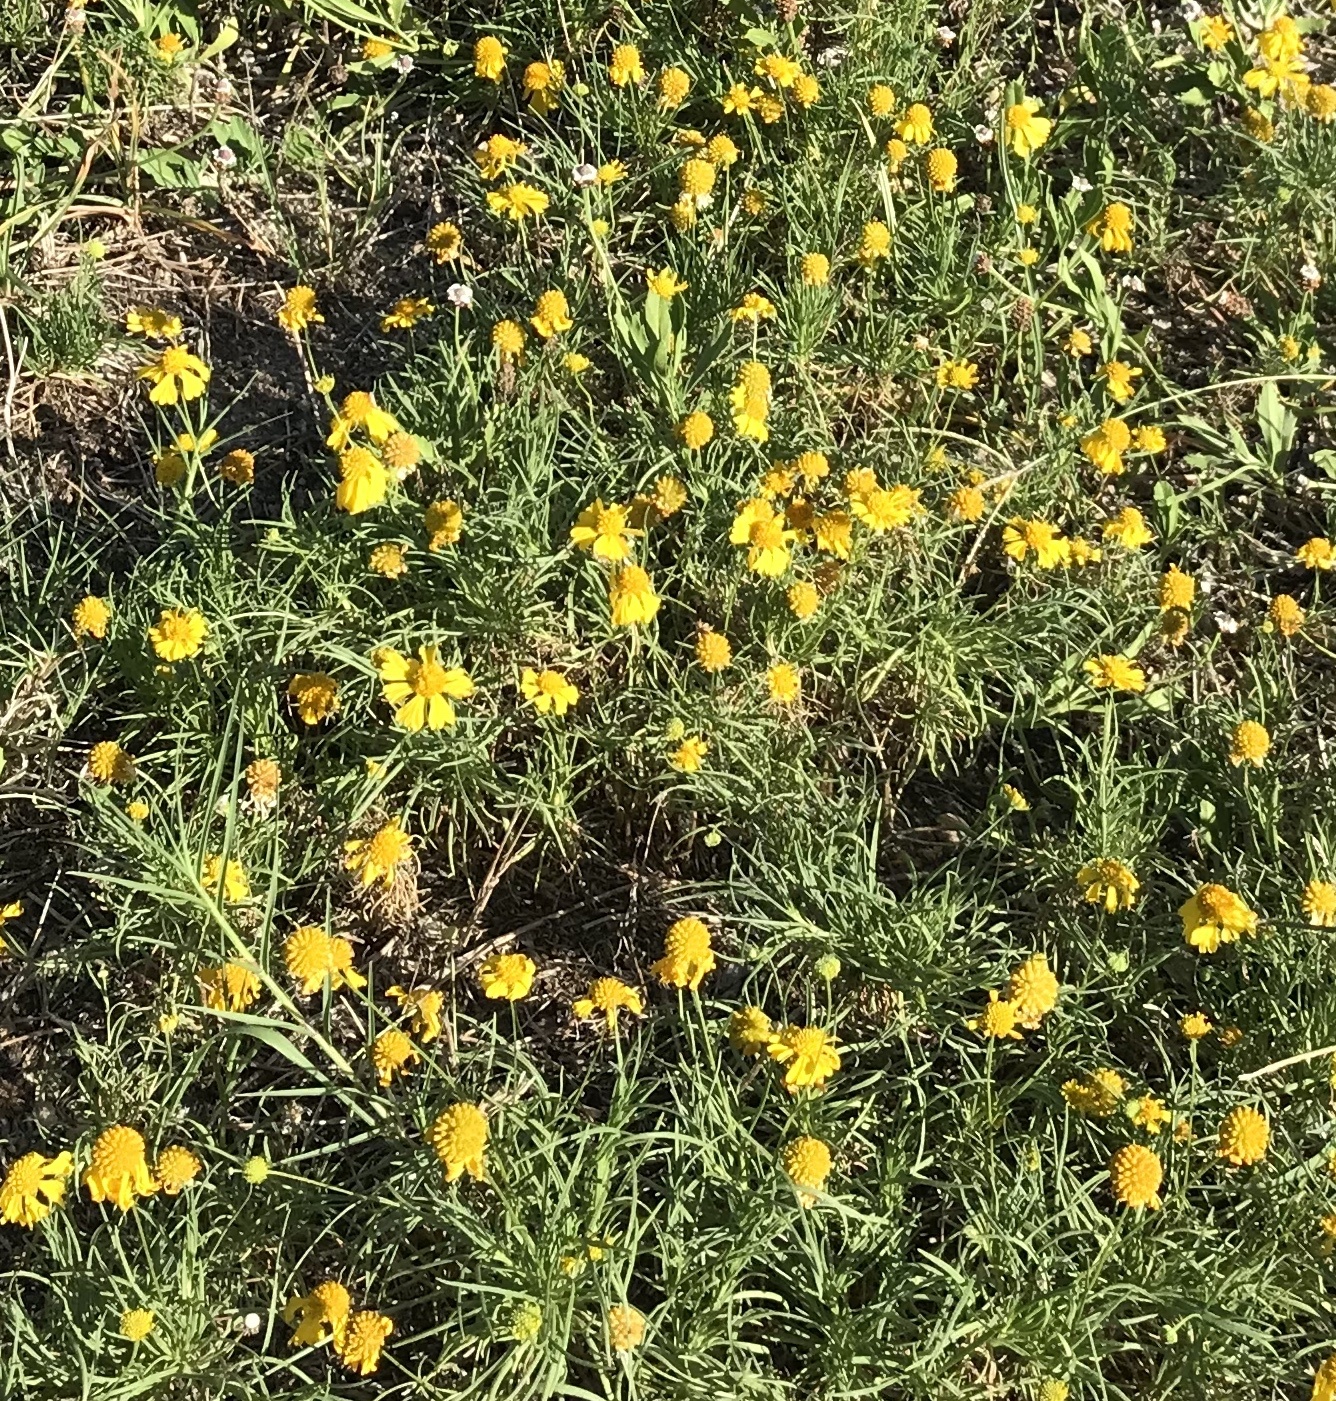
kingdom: Plantae
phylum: Tracheophyta
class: Magnoliopsida
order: Asterales
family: Asteraceae
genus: Helenium
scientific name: Helenium amarum
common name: Bitter sneezeweed
